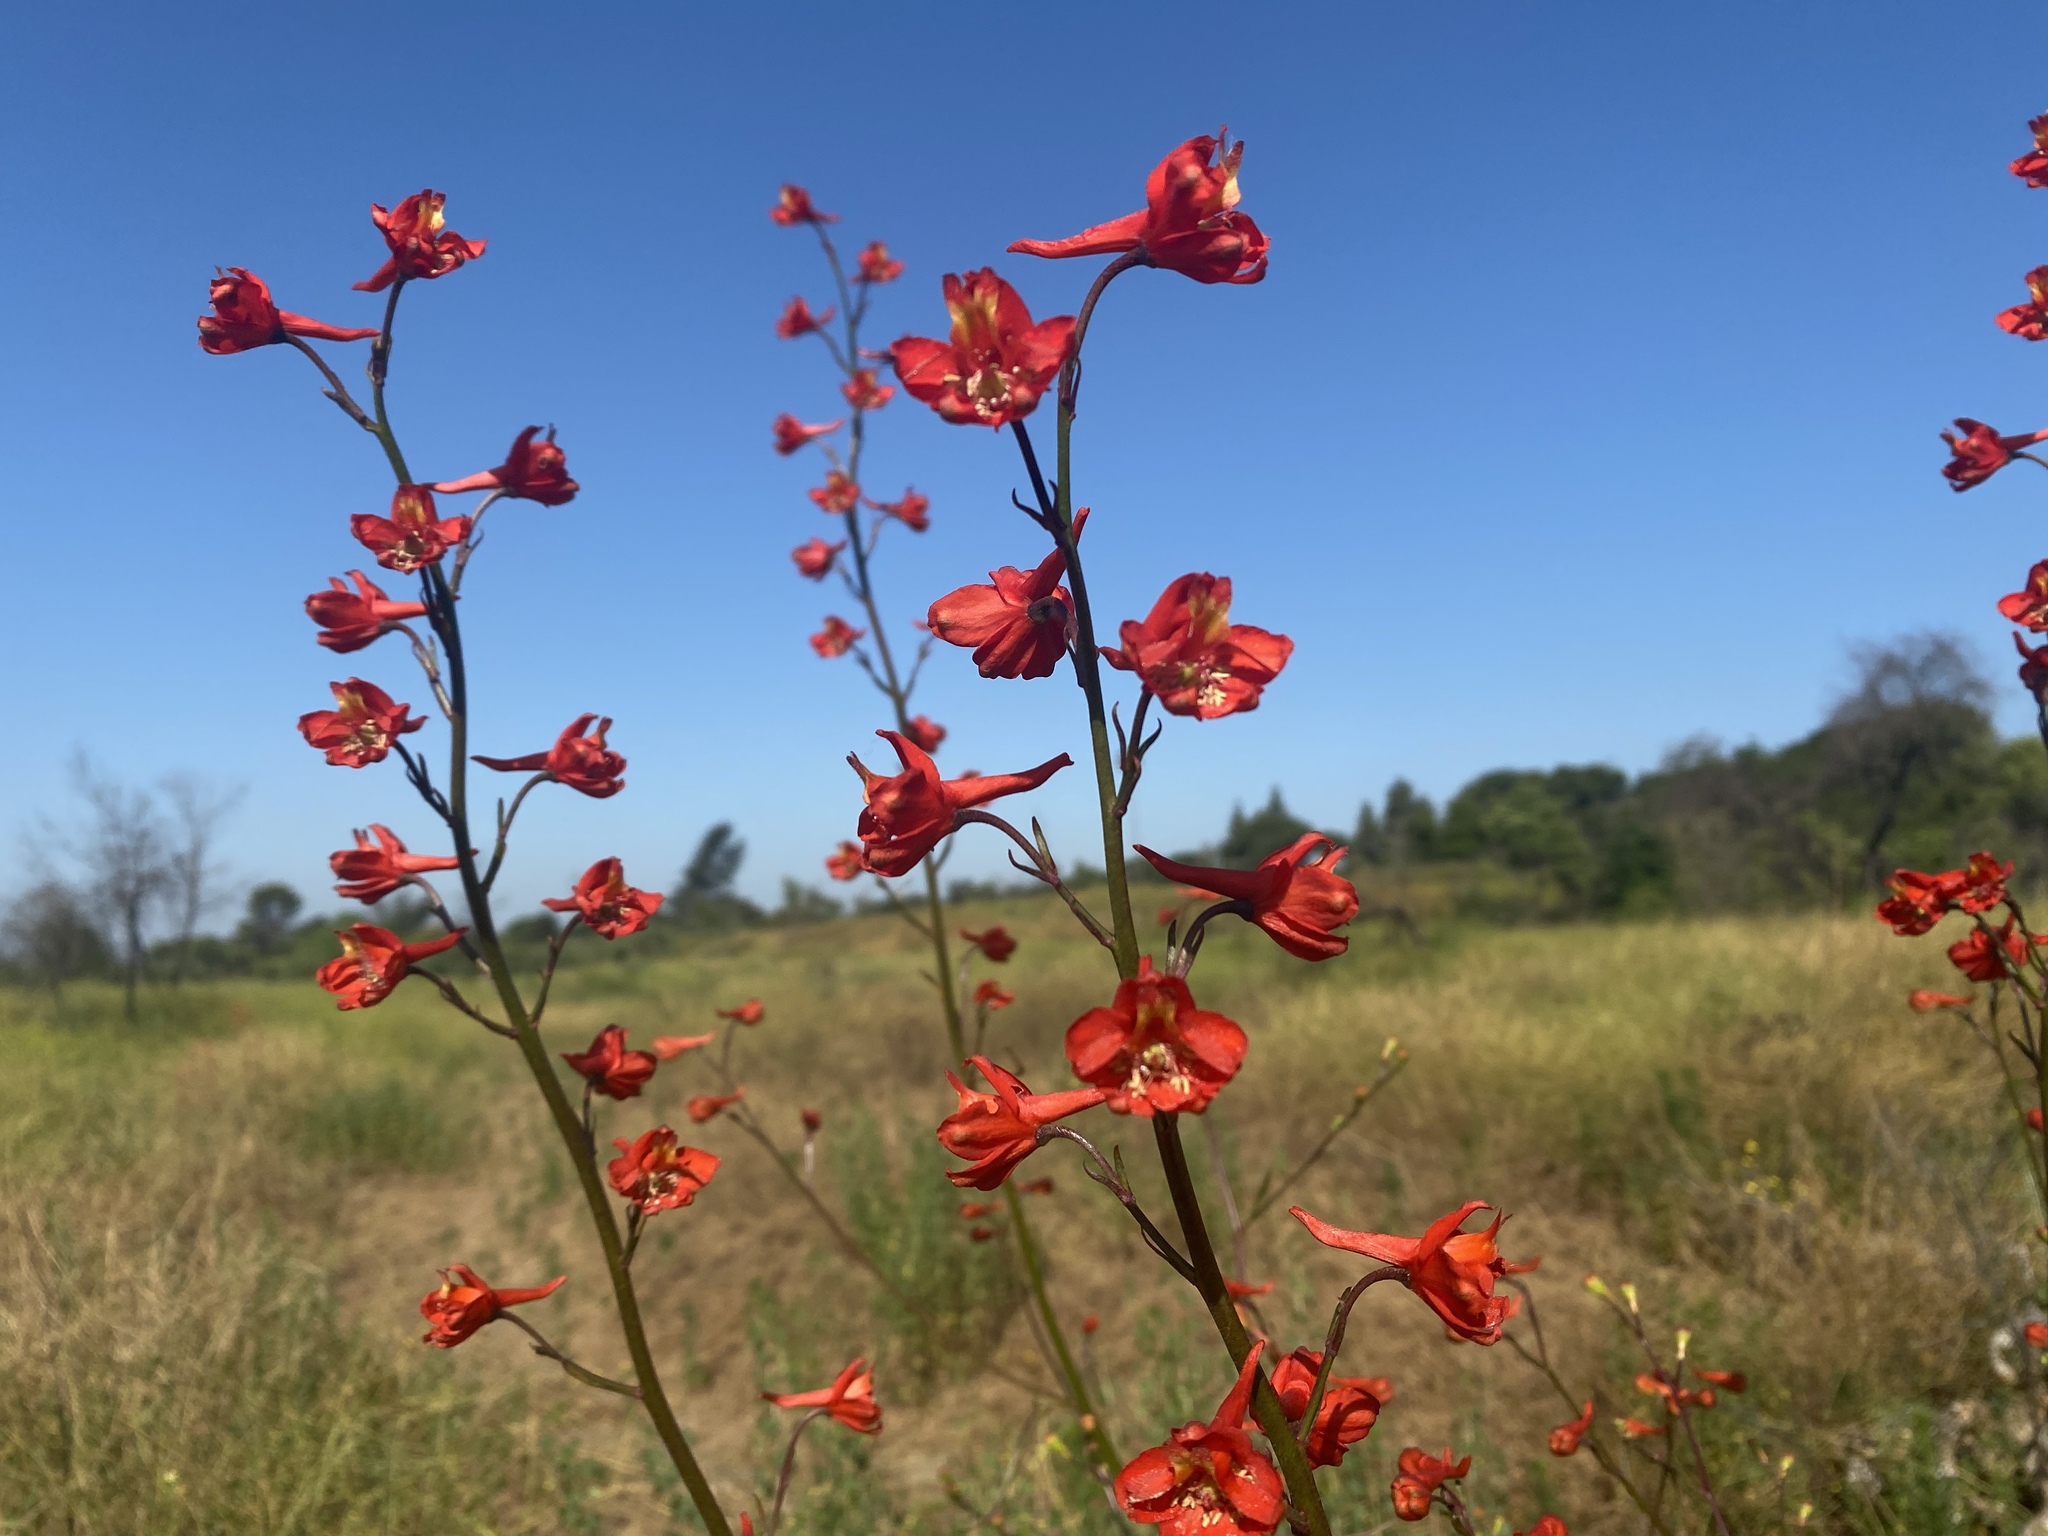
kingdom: Plantae
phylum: Tracheophyta
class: Magnoliopsida
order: Ranunculales
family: Ranunculaceae
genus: Delphinium
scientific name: Delphinium cardinale
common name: Scarlet larkspur
